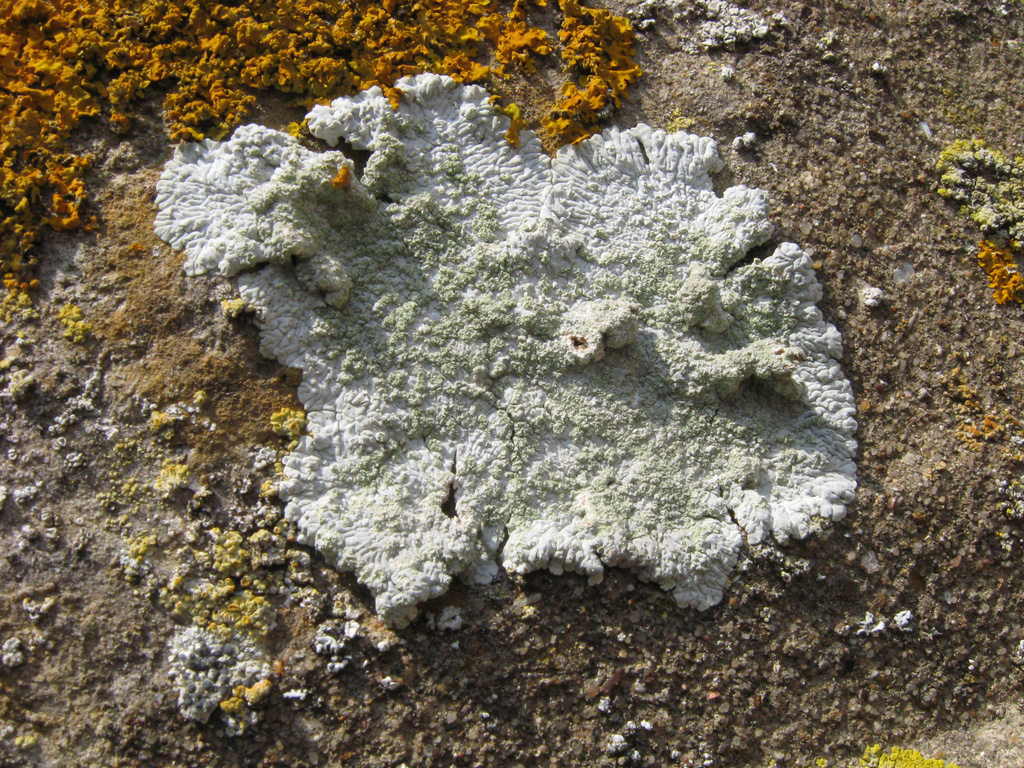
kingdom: Fungi
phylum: Ascomycota
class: Lecanoromycetes
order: Caliciales
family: Caliciaceae
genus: Diploicia
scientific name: Diploicia canescens
